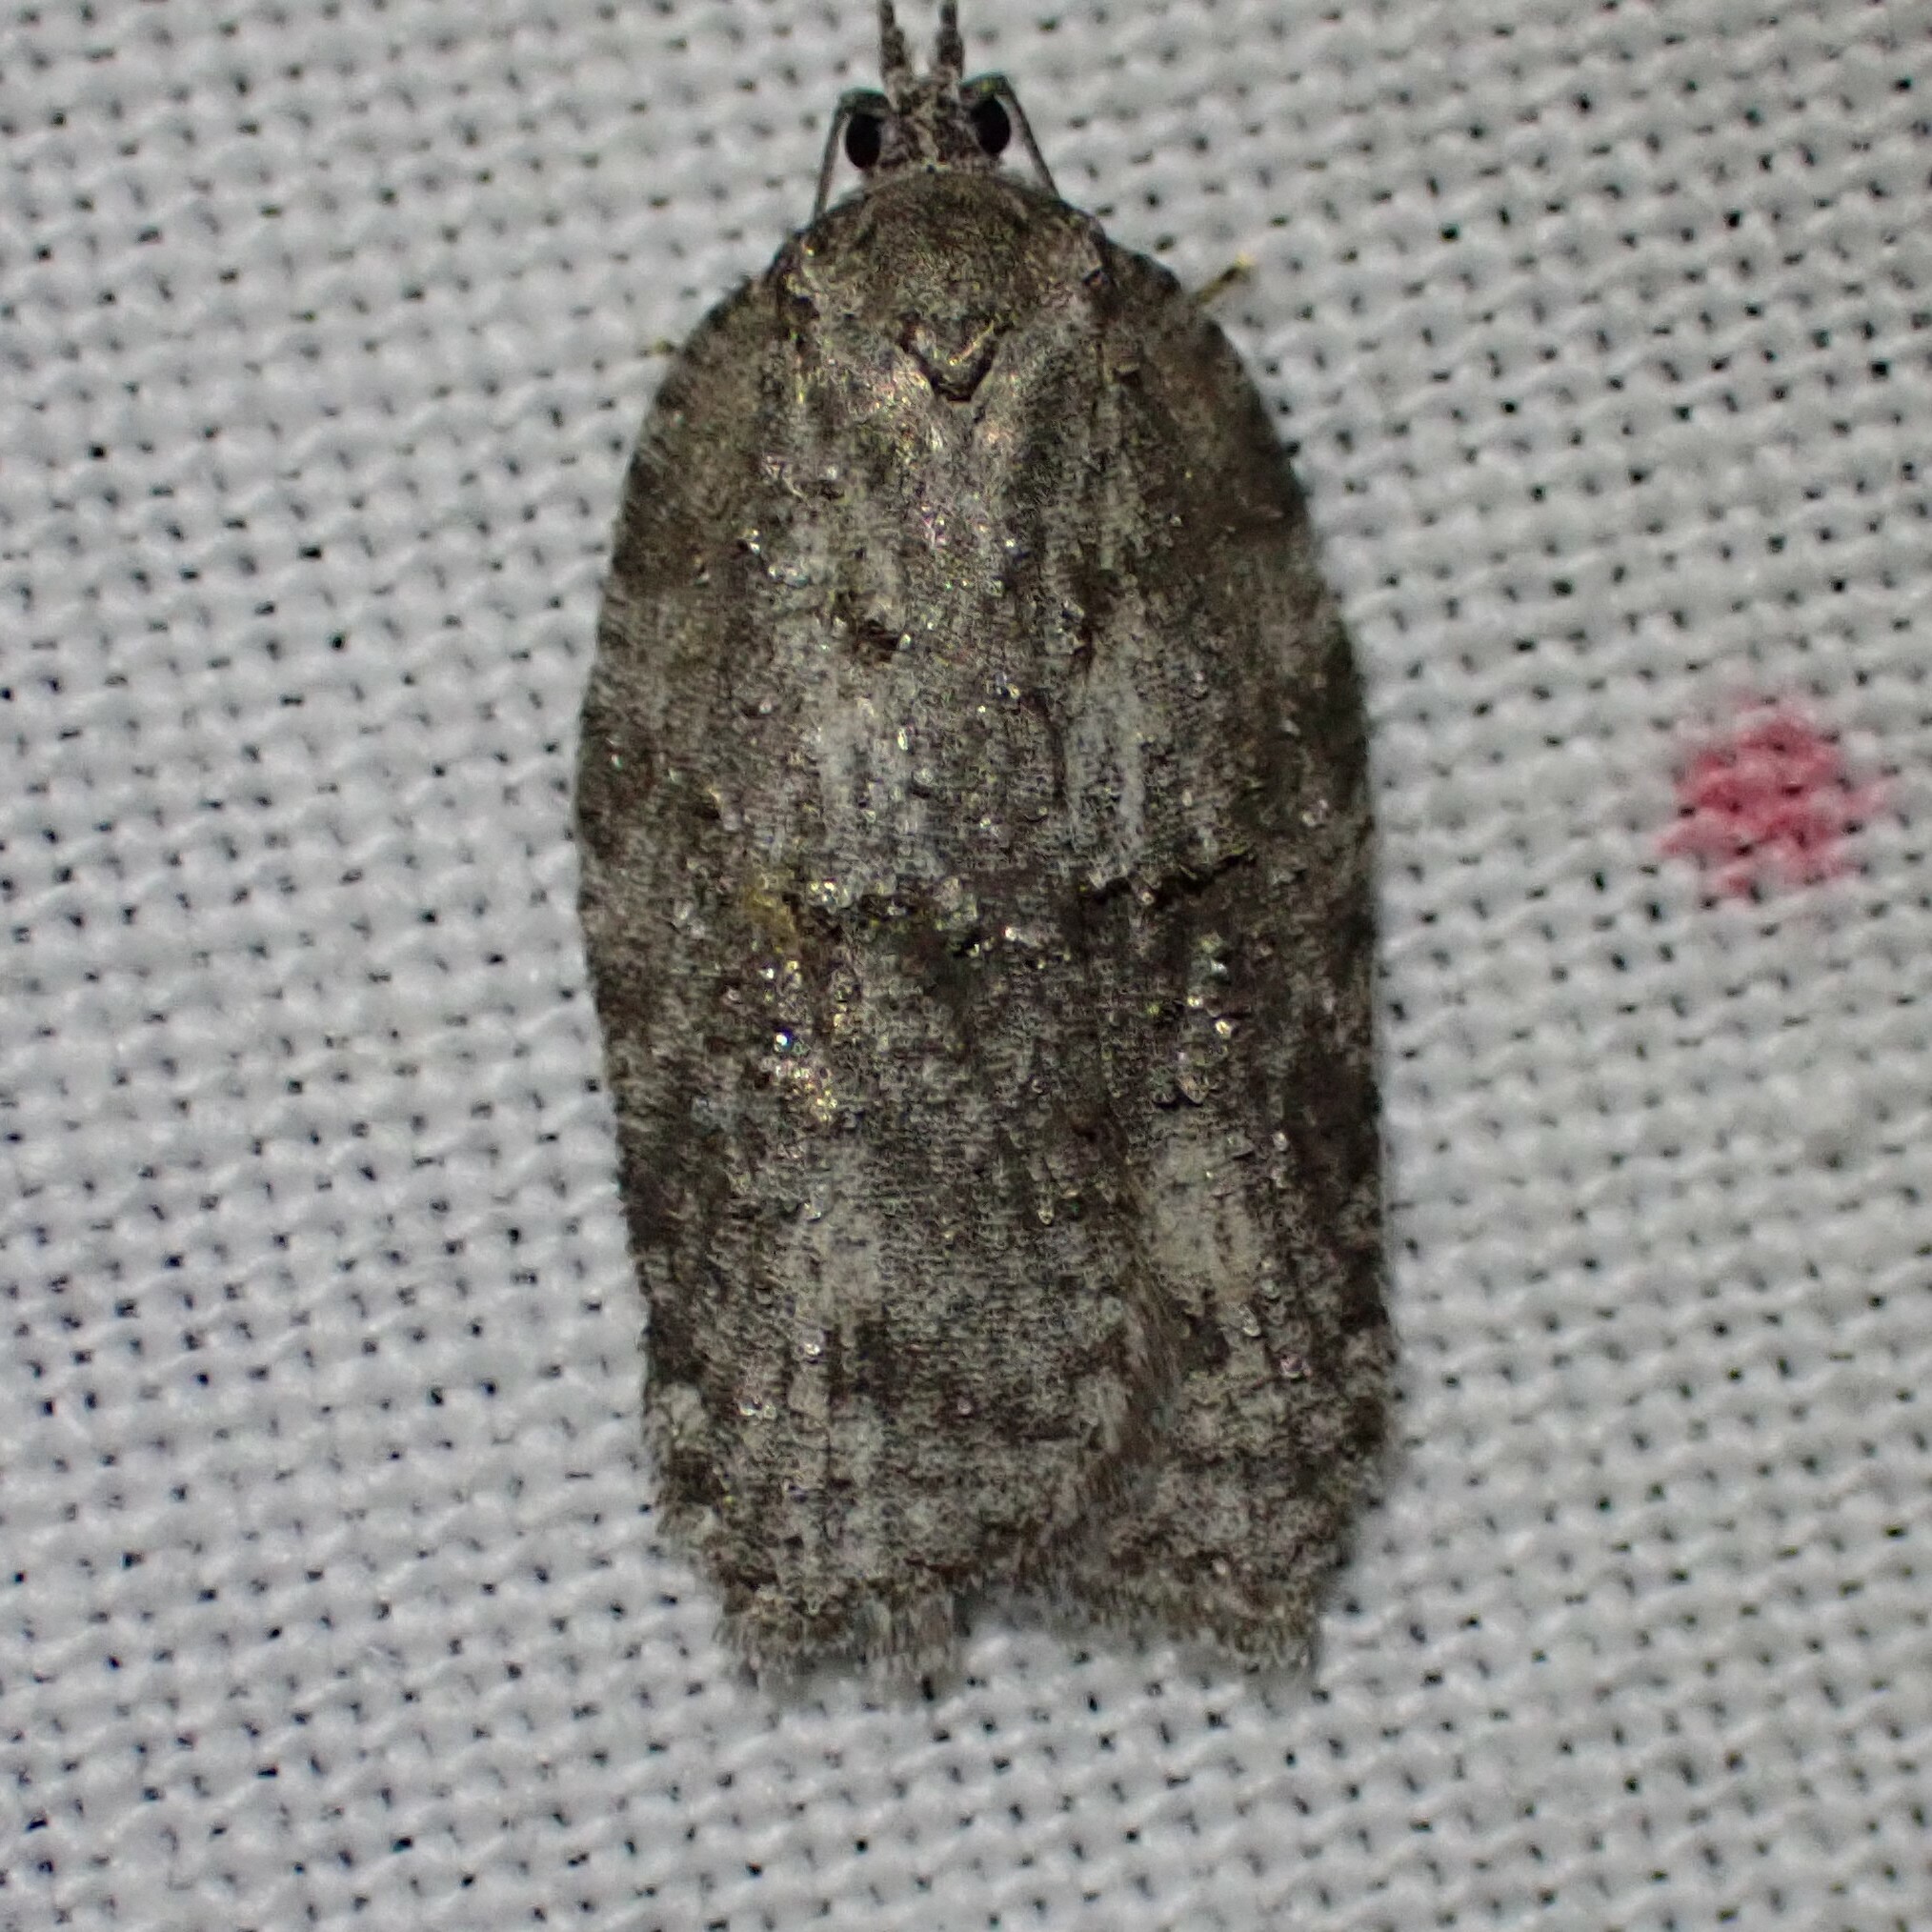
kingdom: Animalia
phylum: Arthropoda
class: Insecta
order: Lepidoptera
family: Tortricidae
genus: Acleris
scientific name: Acleris nigrolinea
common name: Black-lined acleris
